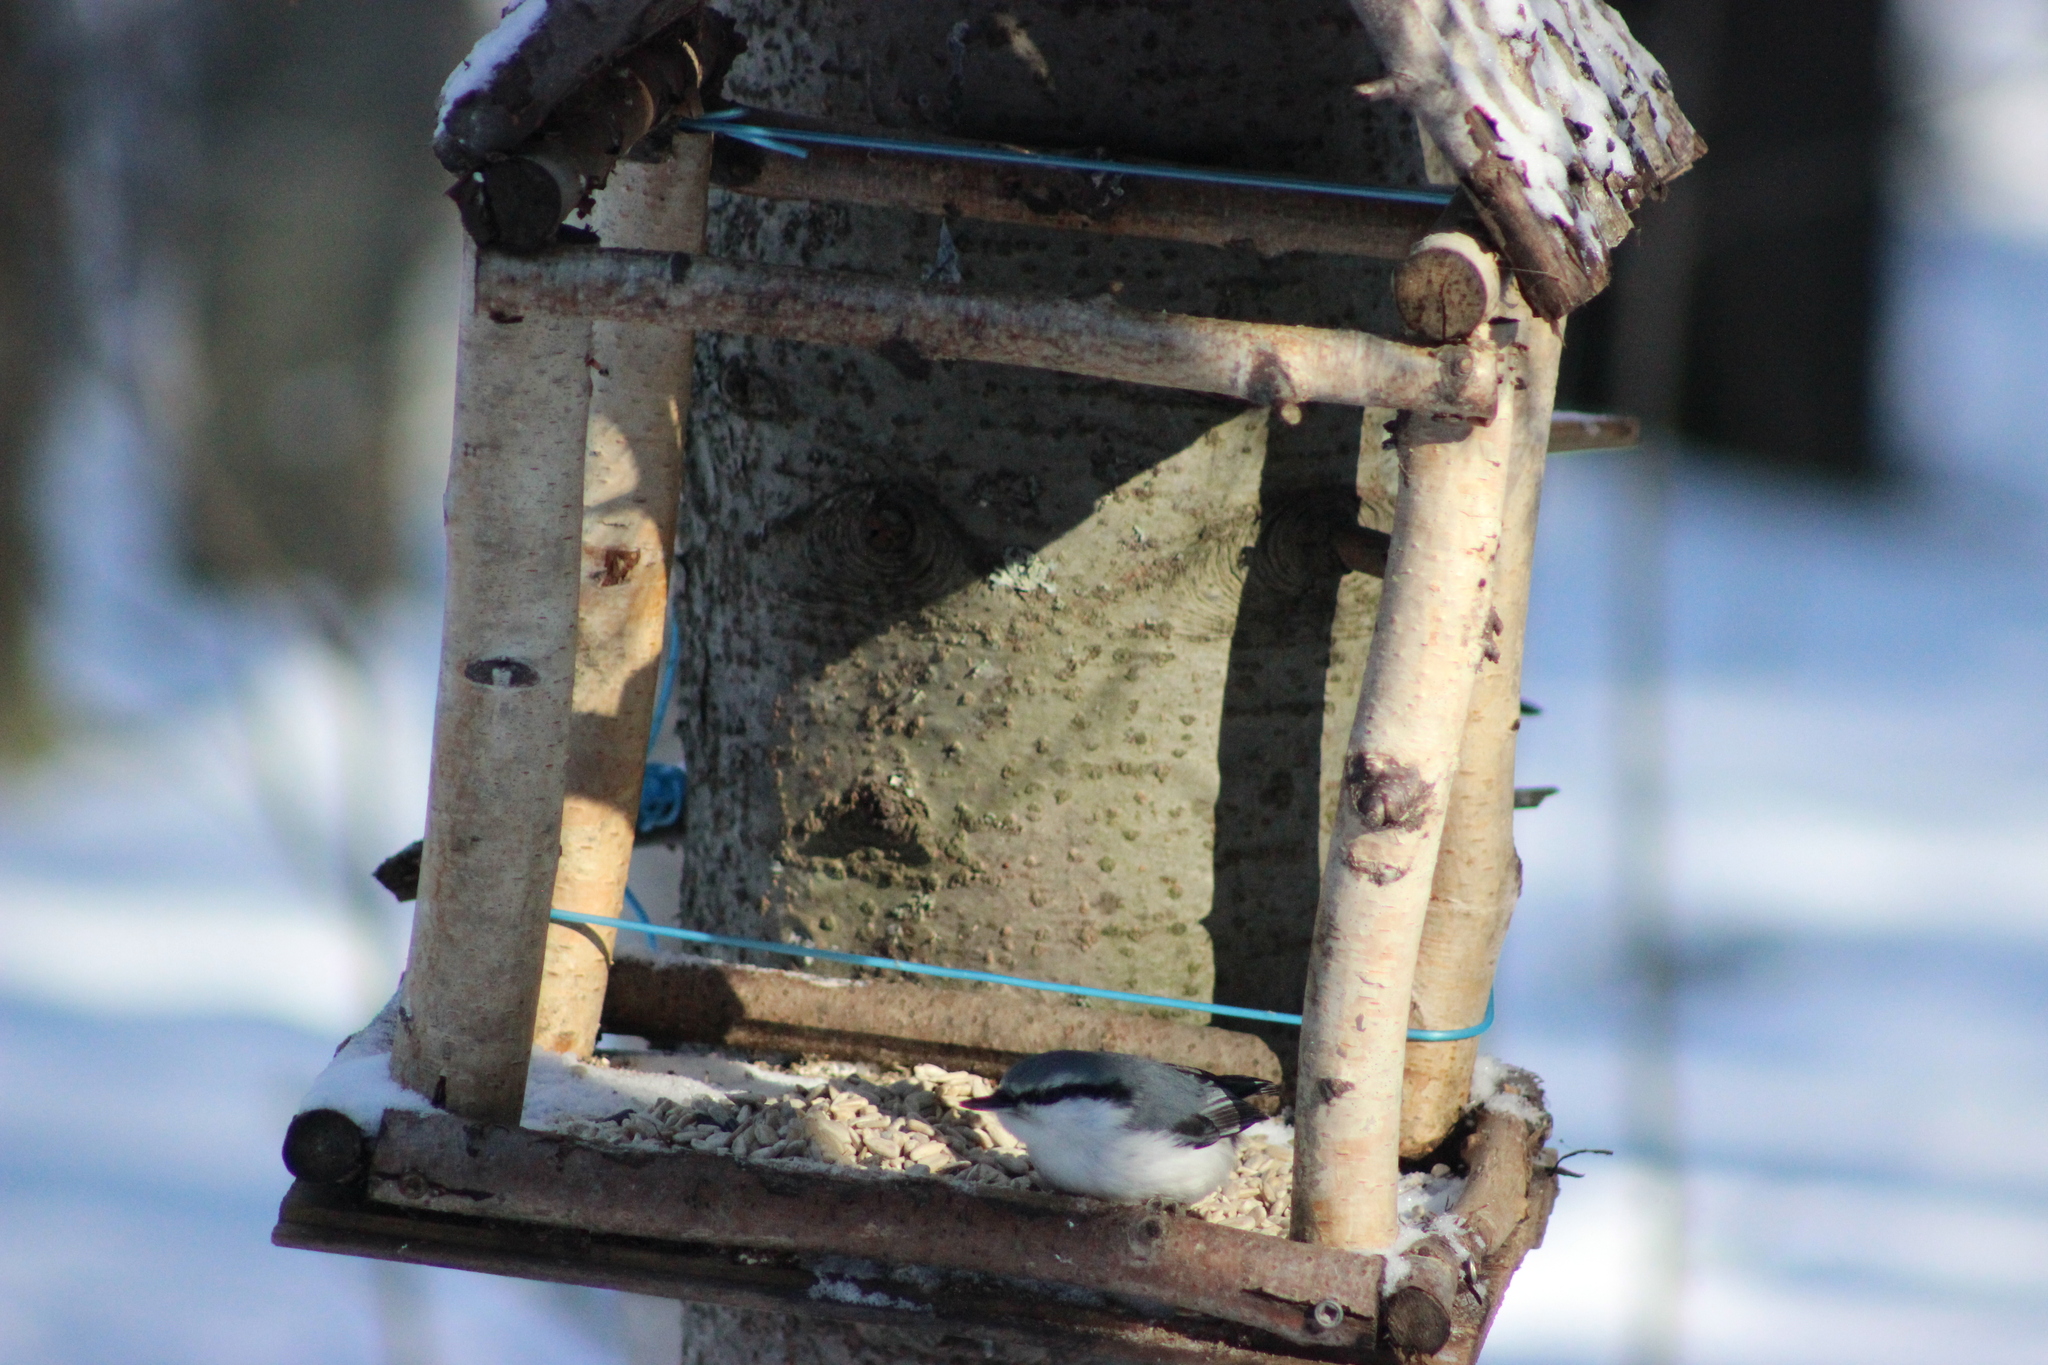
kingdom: Animalia
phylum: Chordata
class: Aves
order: Passeriformes
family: Sittidae
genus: Sitta
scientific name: Sitta europaea
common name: Eurasian nuthatch
